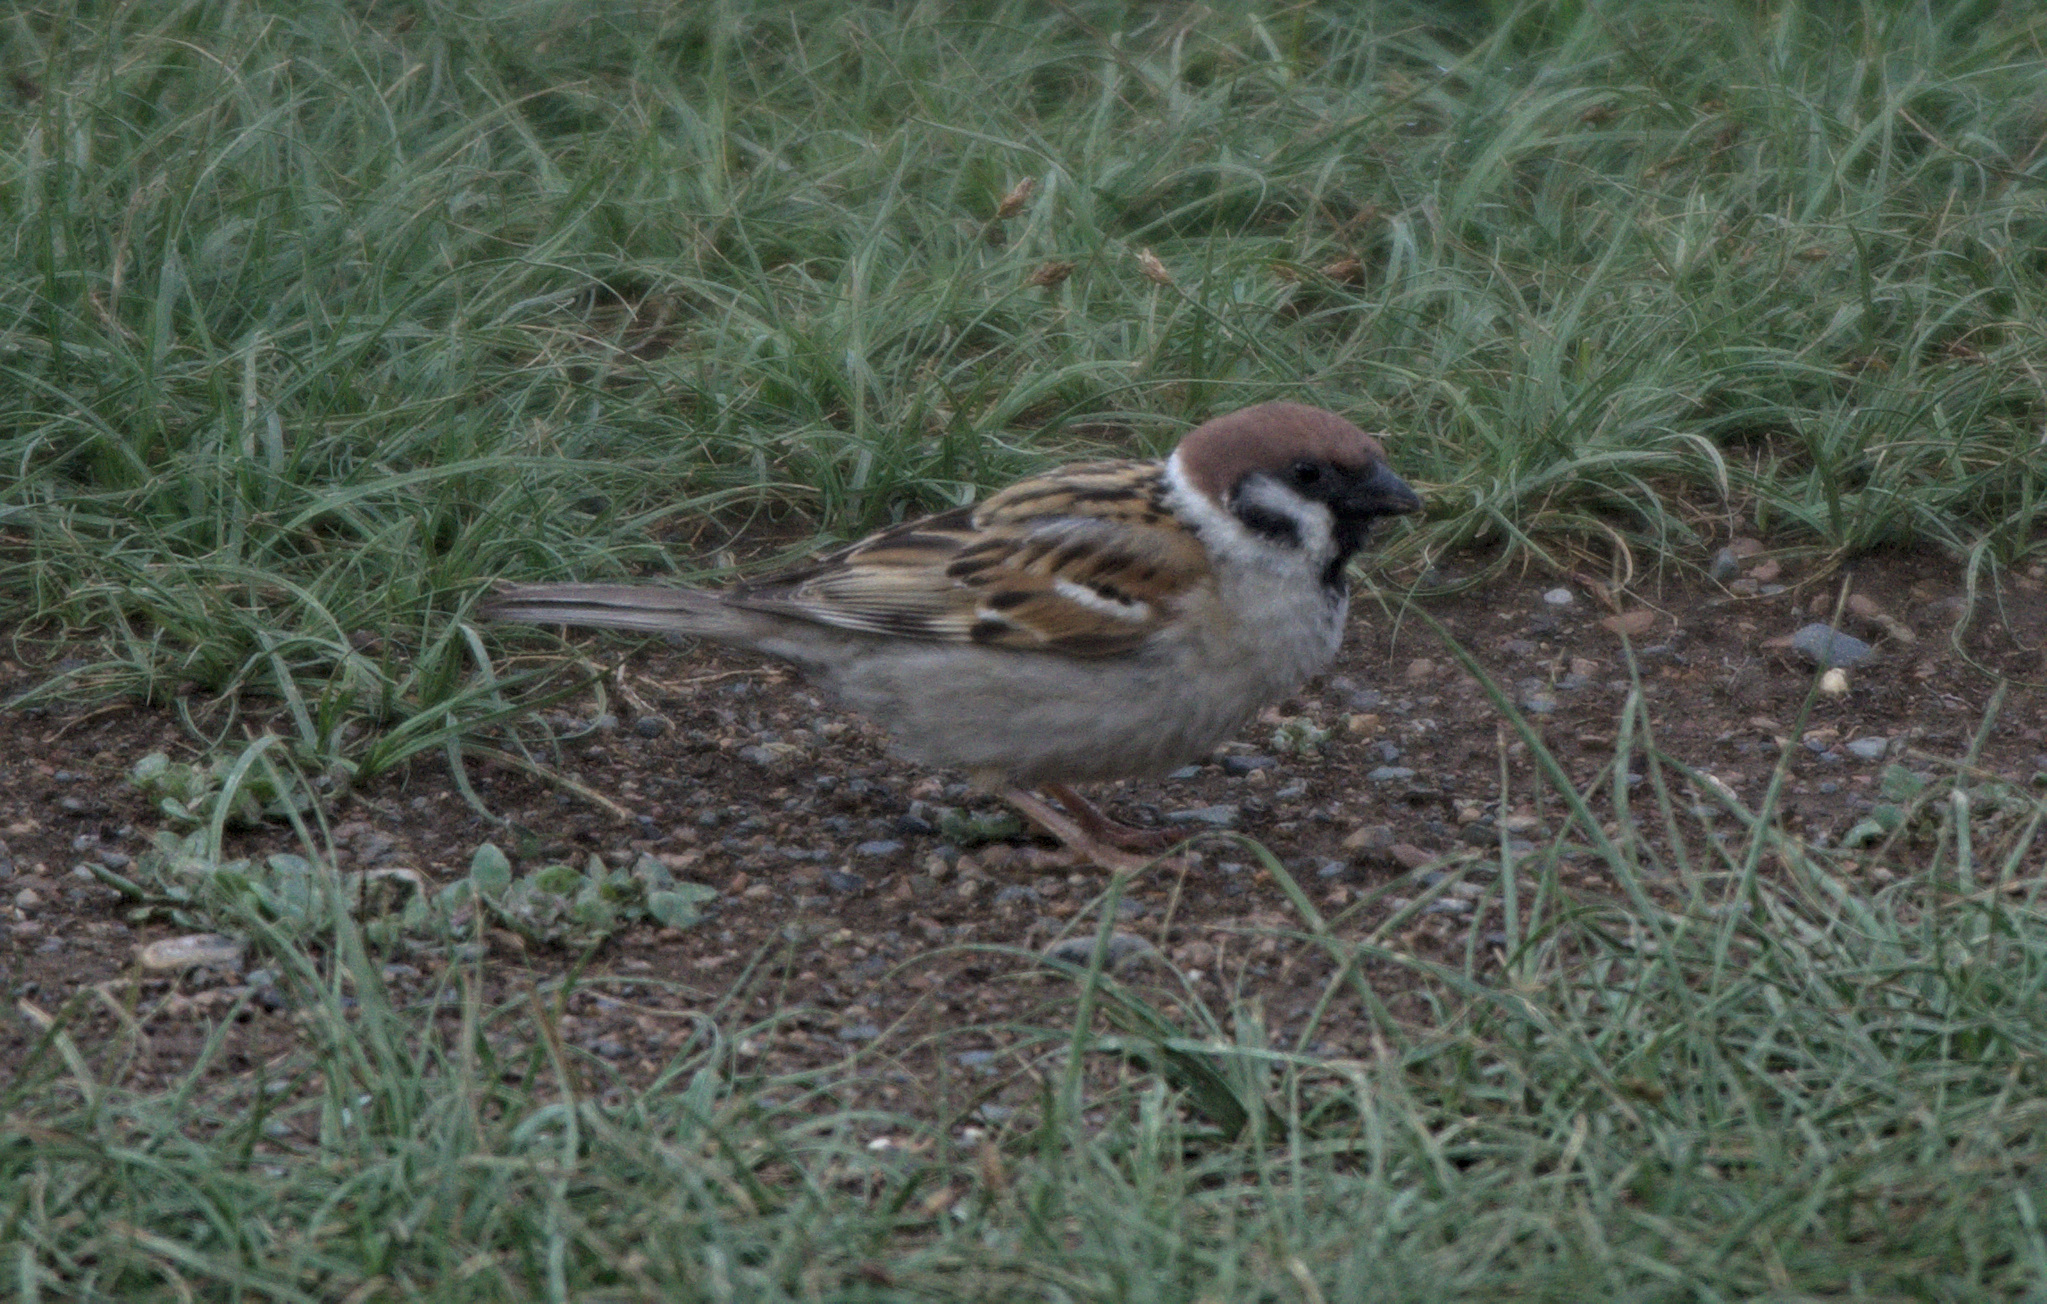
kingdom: Animalia
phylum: Chordata
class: Aves
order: Passeriformes
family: Passeridae
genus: Passer
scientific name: Passer montanus
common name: Eurasian tree sparrow
